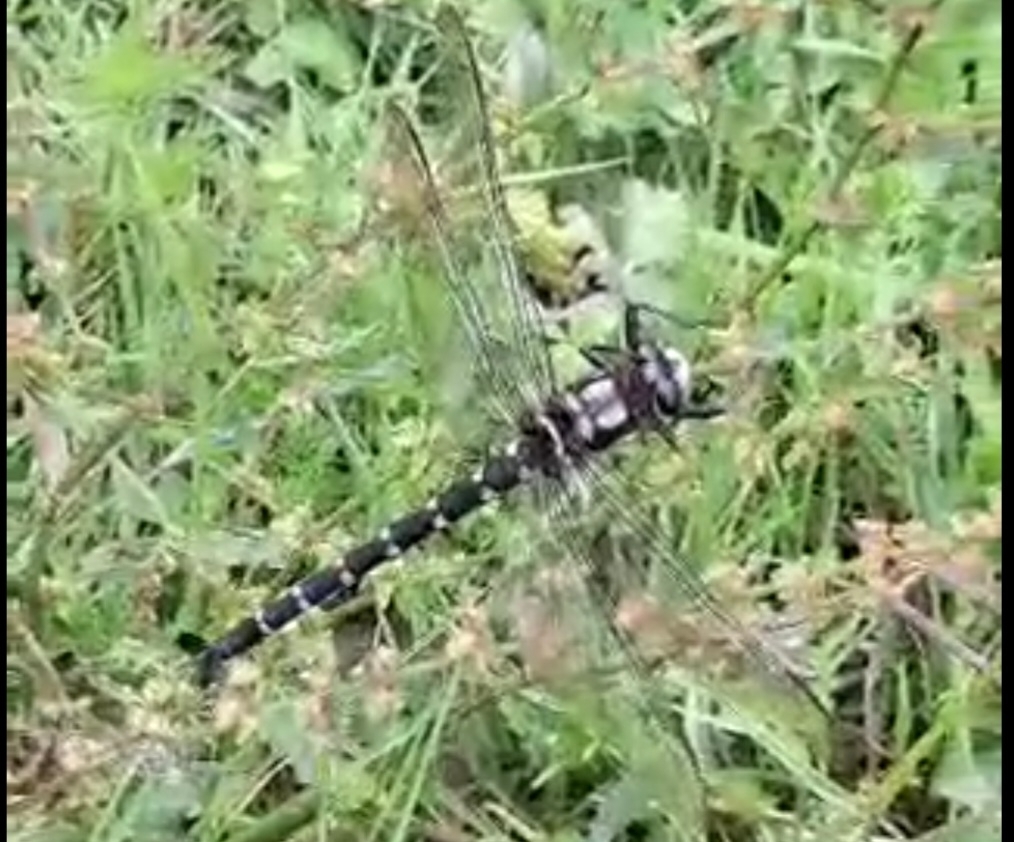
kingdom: Animalia
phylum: Arthropoda
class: Insecta
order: Odonata
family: Petaluridae
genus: Uropetala
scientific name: Uropetala carovei
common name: Bush giant dragonfly
